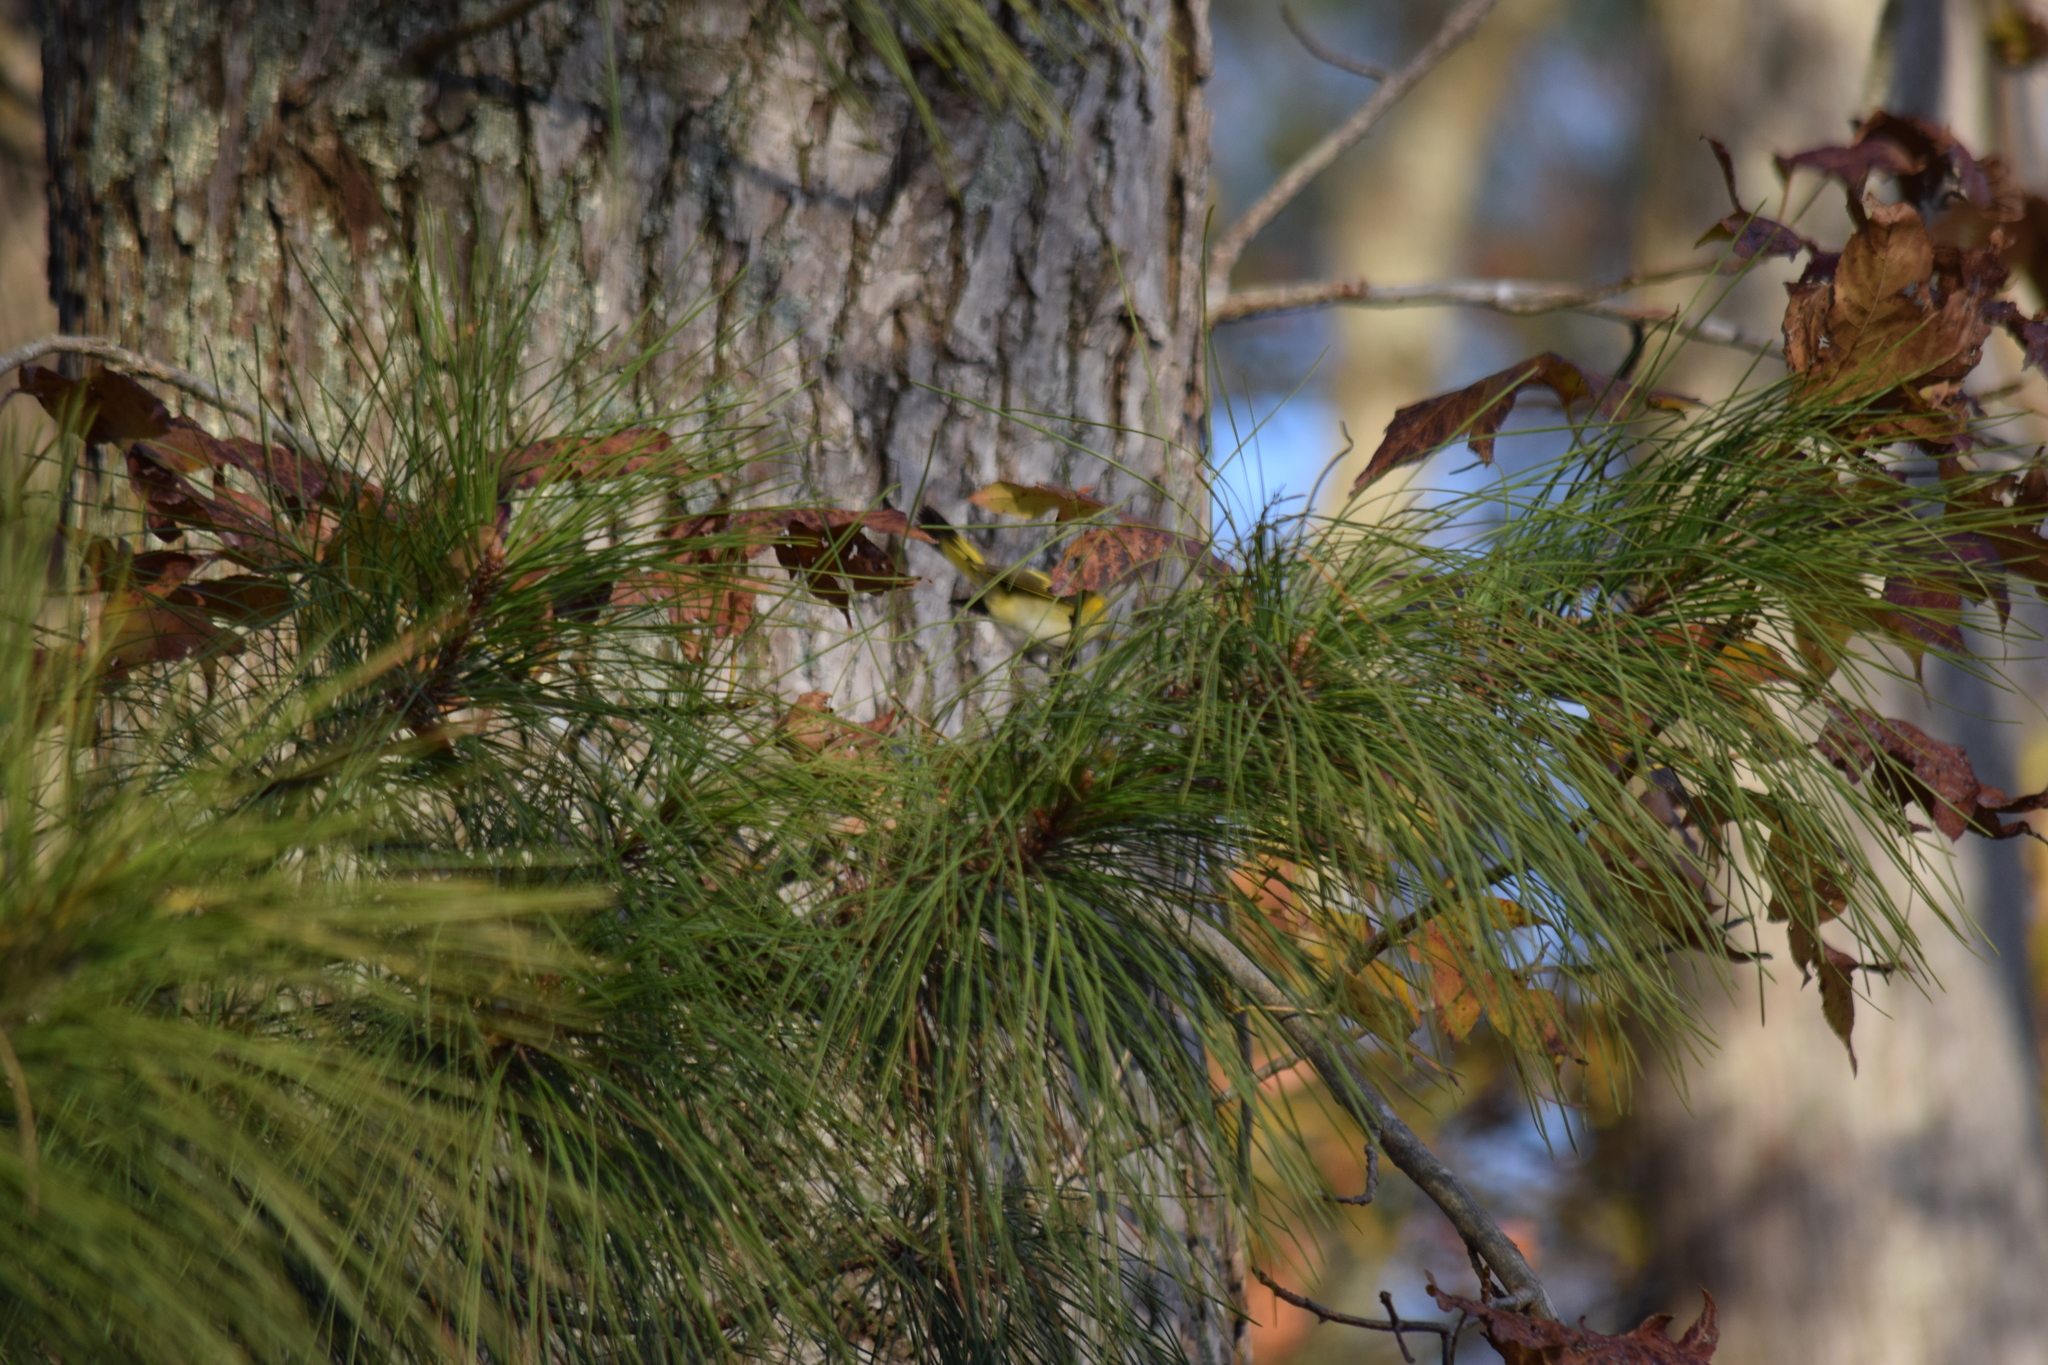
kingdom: Animalia
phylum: Chordata
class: Aves
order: Passeriformes
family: Parulidae
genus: Setophaga
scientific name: Setophaga ruticilla
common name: American redstart
